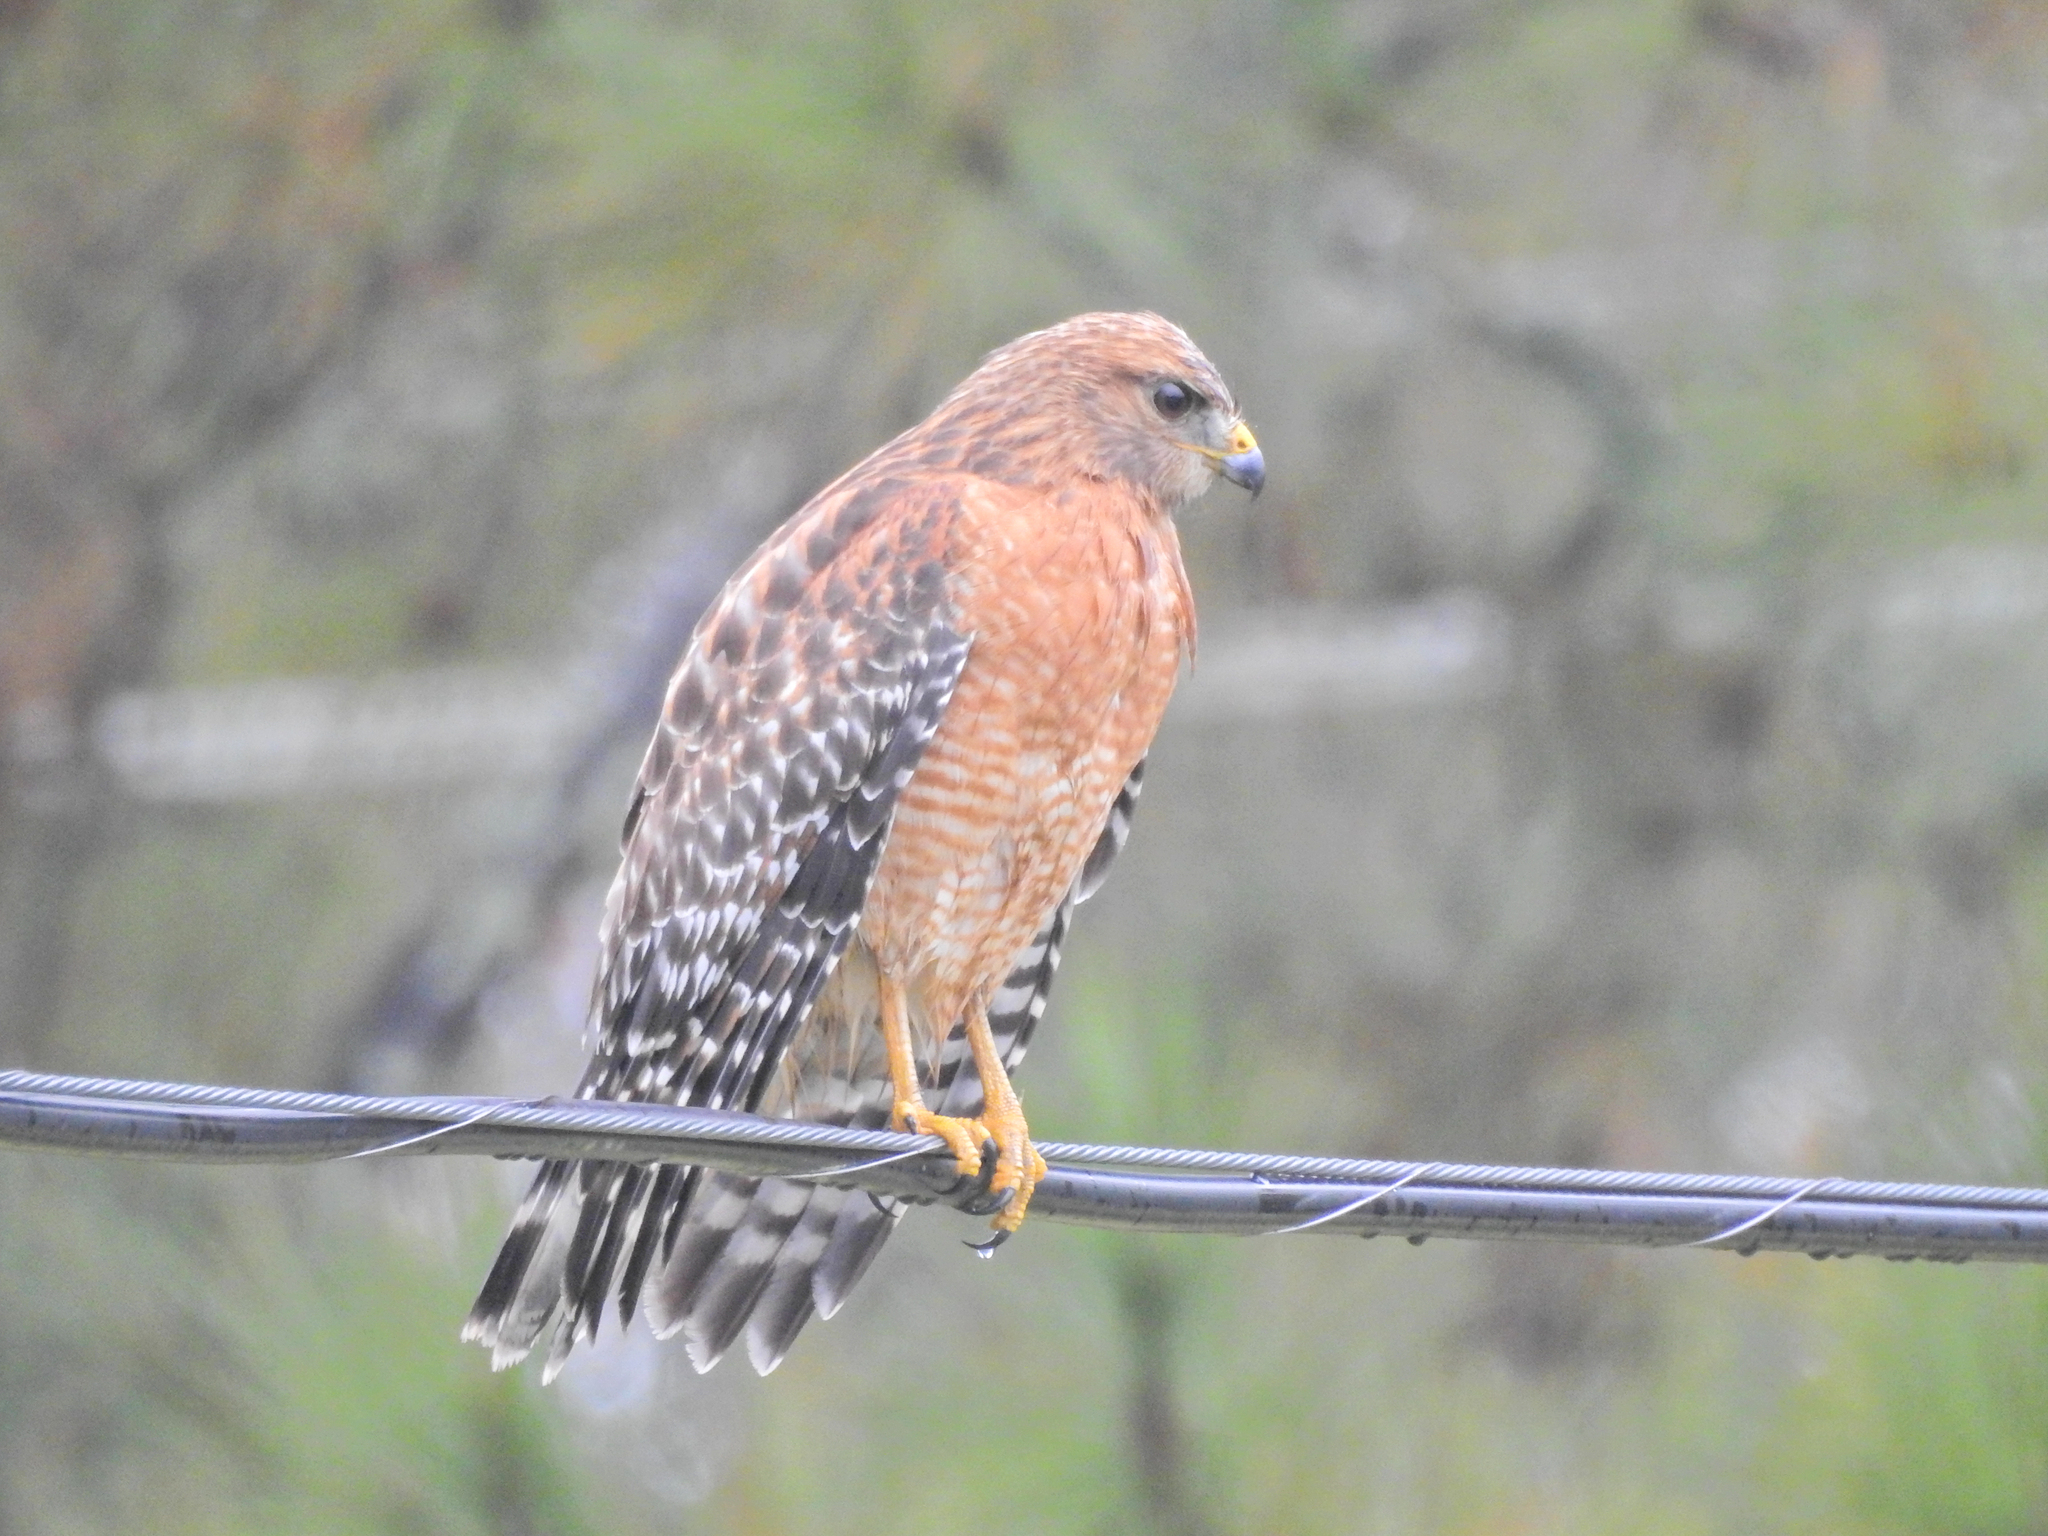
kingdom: Animalia
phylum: Chordata
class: Aves
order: Accipitriformes
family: Accipitridae
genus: Buteo
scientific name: Buteo lineatus
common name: Red-shouldered hawk
